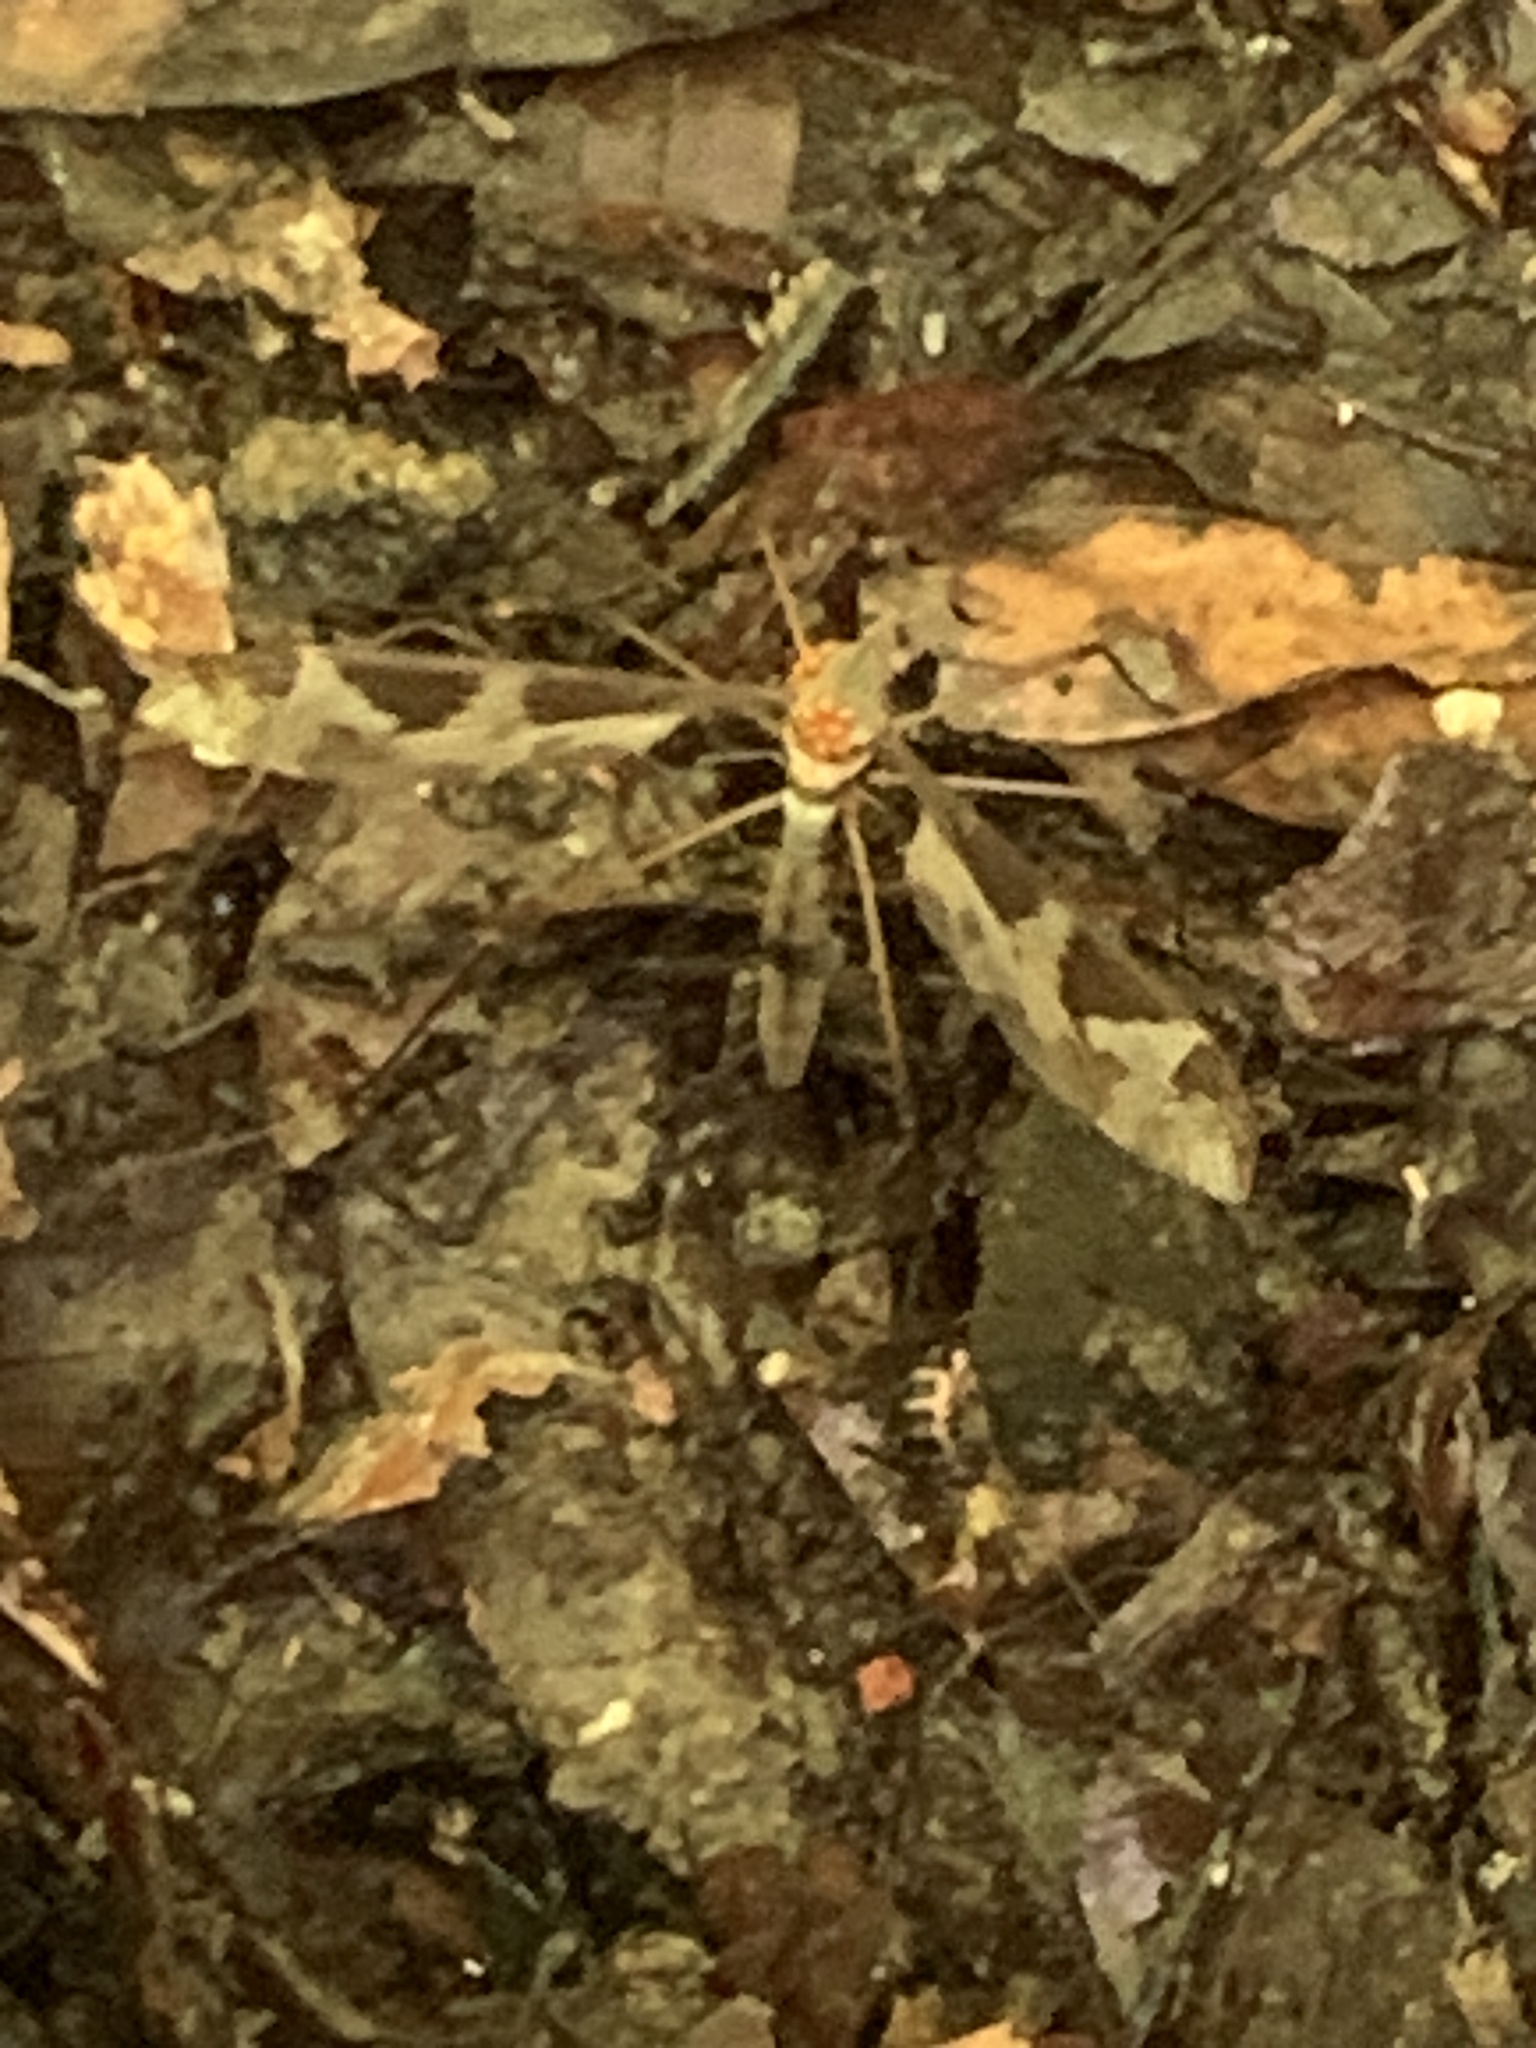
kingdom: Animalia
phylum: Arthropoda
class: Insecta
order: Diptera
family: Tipulidae
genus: Tipula
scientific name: Tipula maxima
